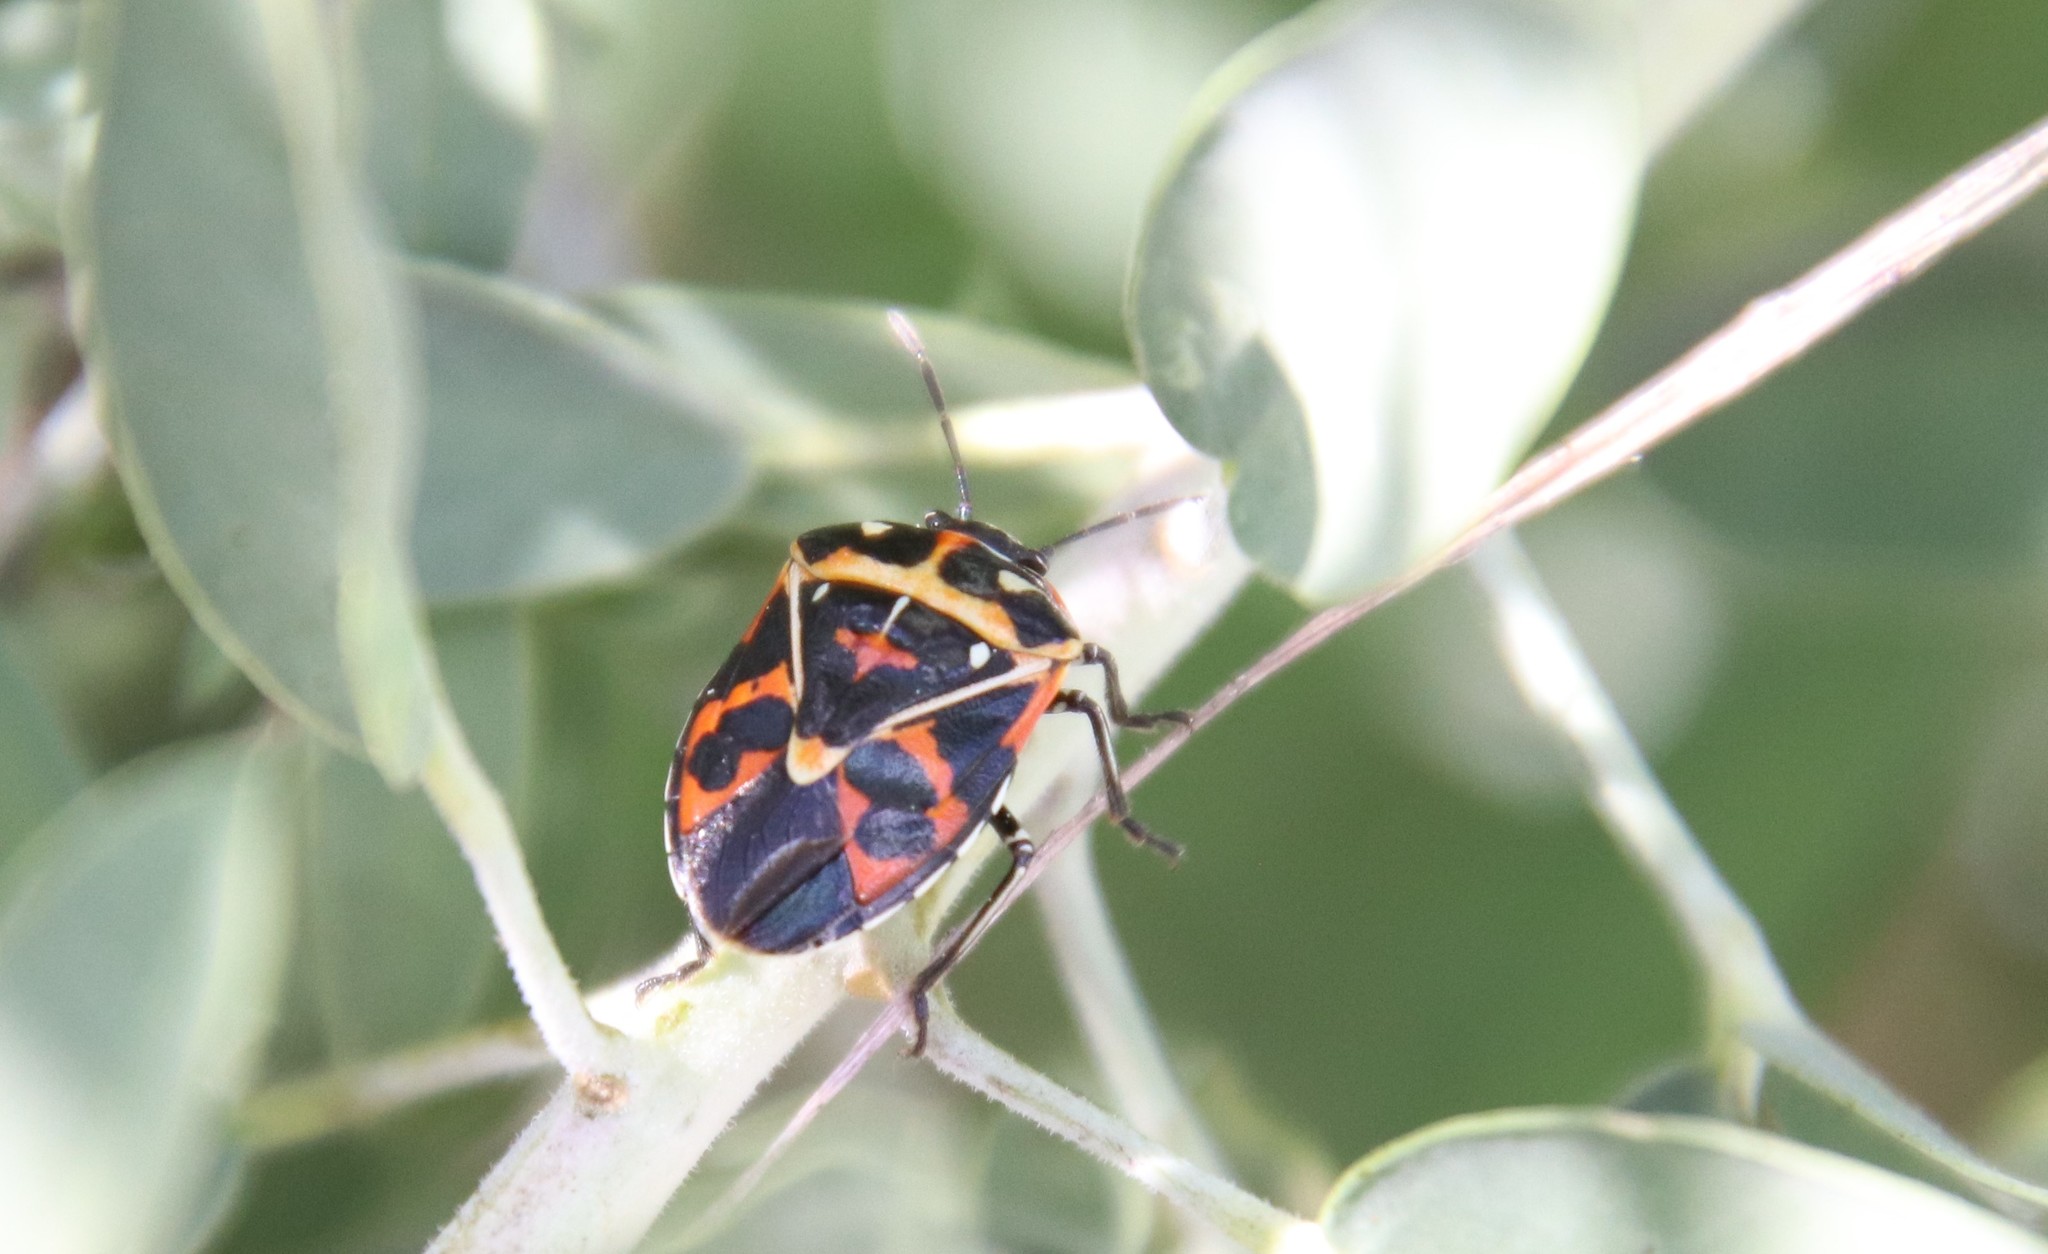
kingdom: Animalia
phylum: Arthropoda
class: Insecta
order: Hemiptera
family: Pentatomidae
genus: Murgantia
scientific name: Murgantia histrionica
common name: Harlequin bug
